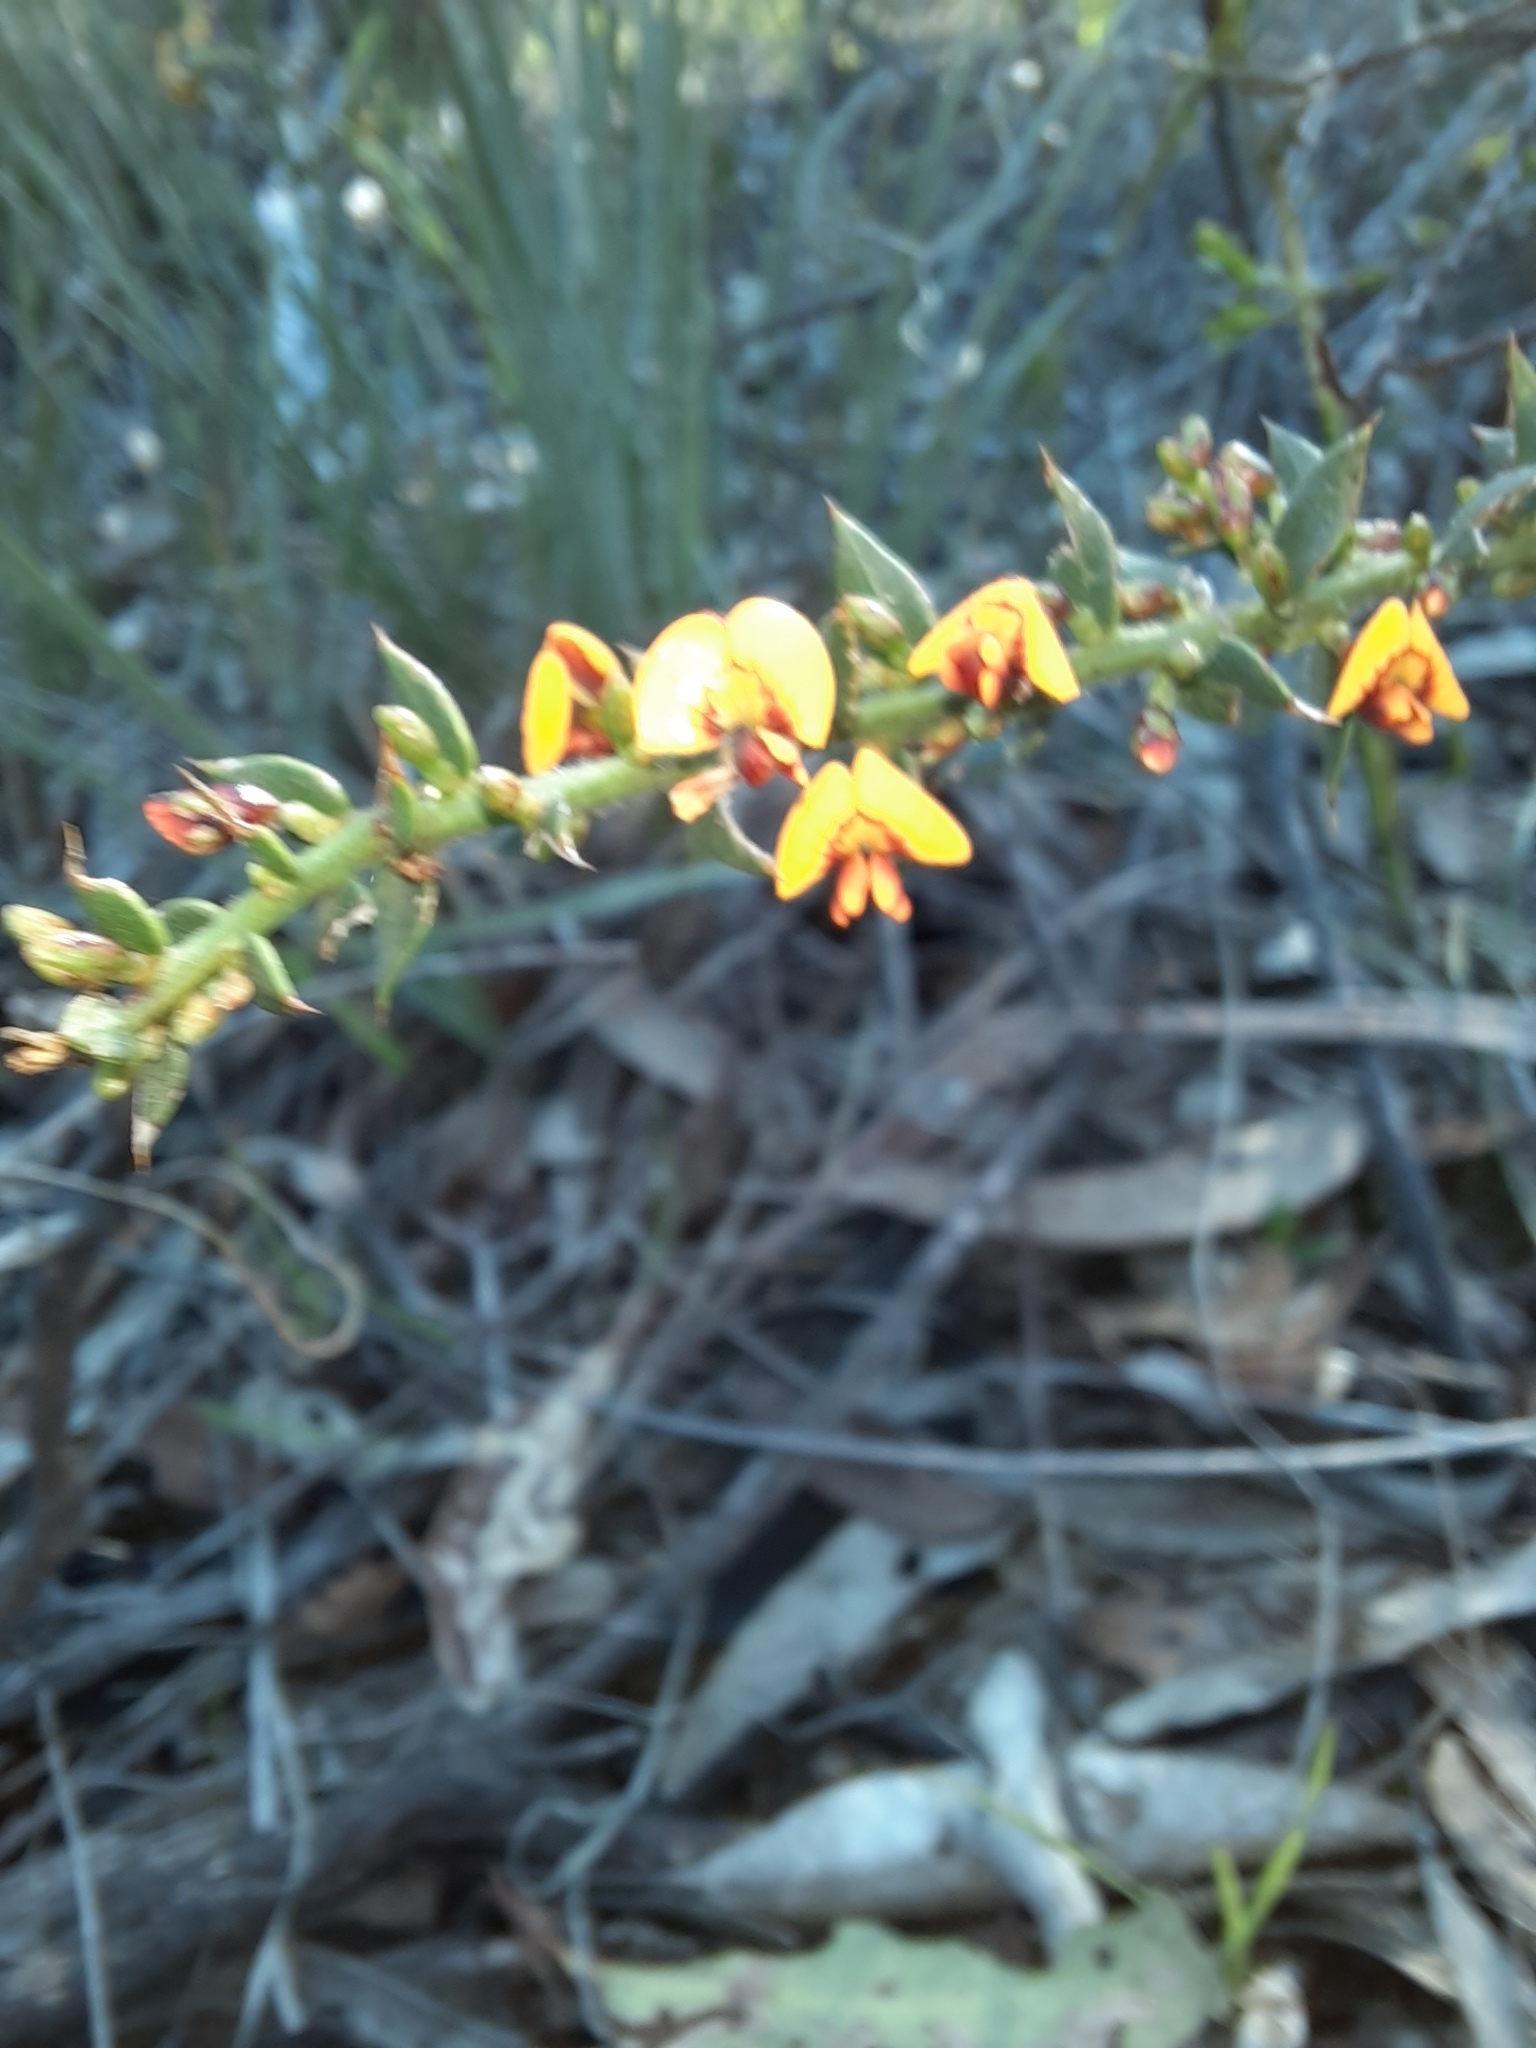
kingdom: Plantae
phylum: Tracheophyta
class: Magnoliopsida
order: Fabales
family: Fabaceae
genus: Daviesia
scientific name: Daviesia ulicifolia
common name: Gorse bitter-pea
